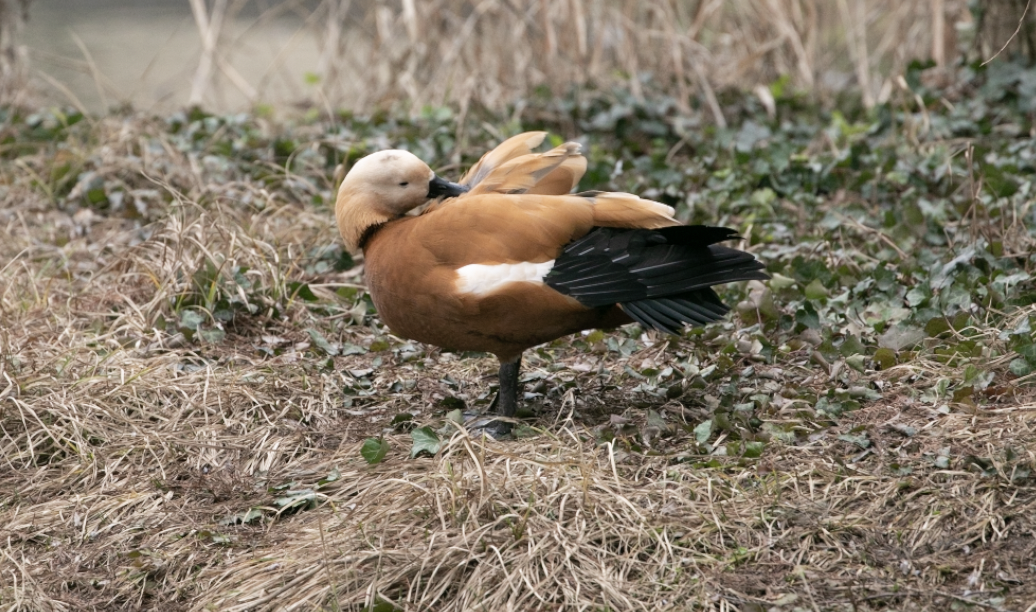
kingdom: Animalia
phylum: Chordata
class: Aves
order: Anseriformes
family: Anatidae
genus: Tadorna
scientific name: Tadorna ferruginea
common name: Ruddy shelduck
